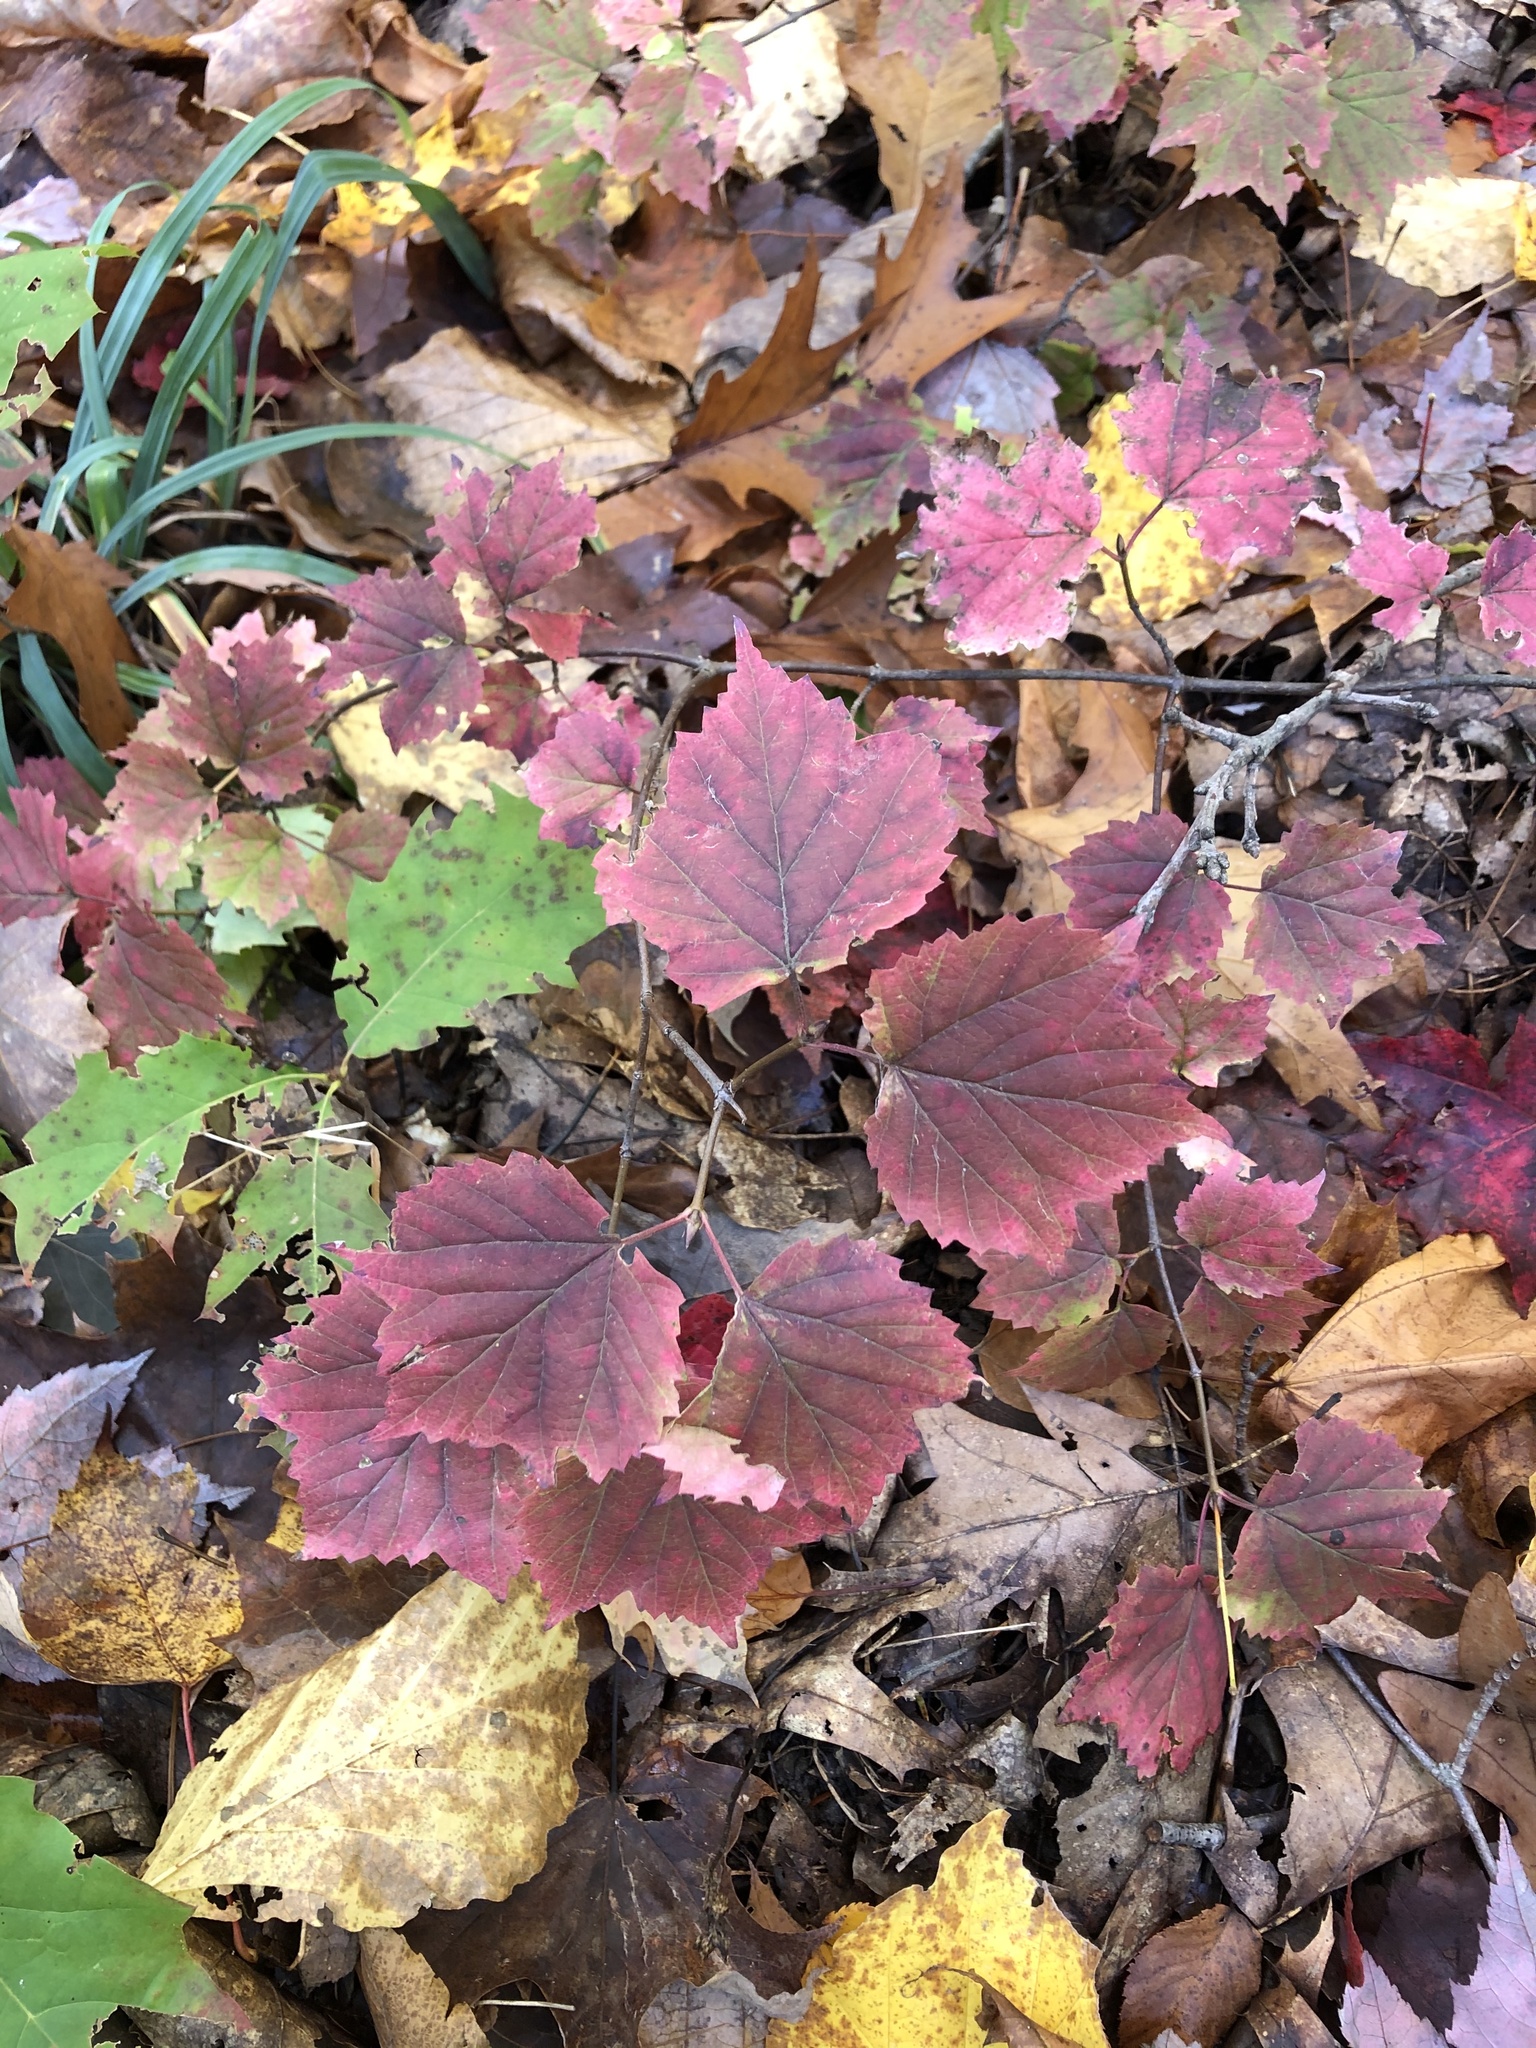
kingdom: Plantae
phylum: Tracheophyta
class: Magnoliopsida
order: Dipsacales
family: Viburnaceae
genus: Viburnum
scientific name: Viburnum acerifolium
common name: Dockmackie
